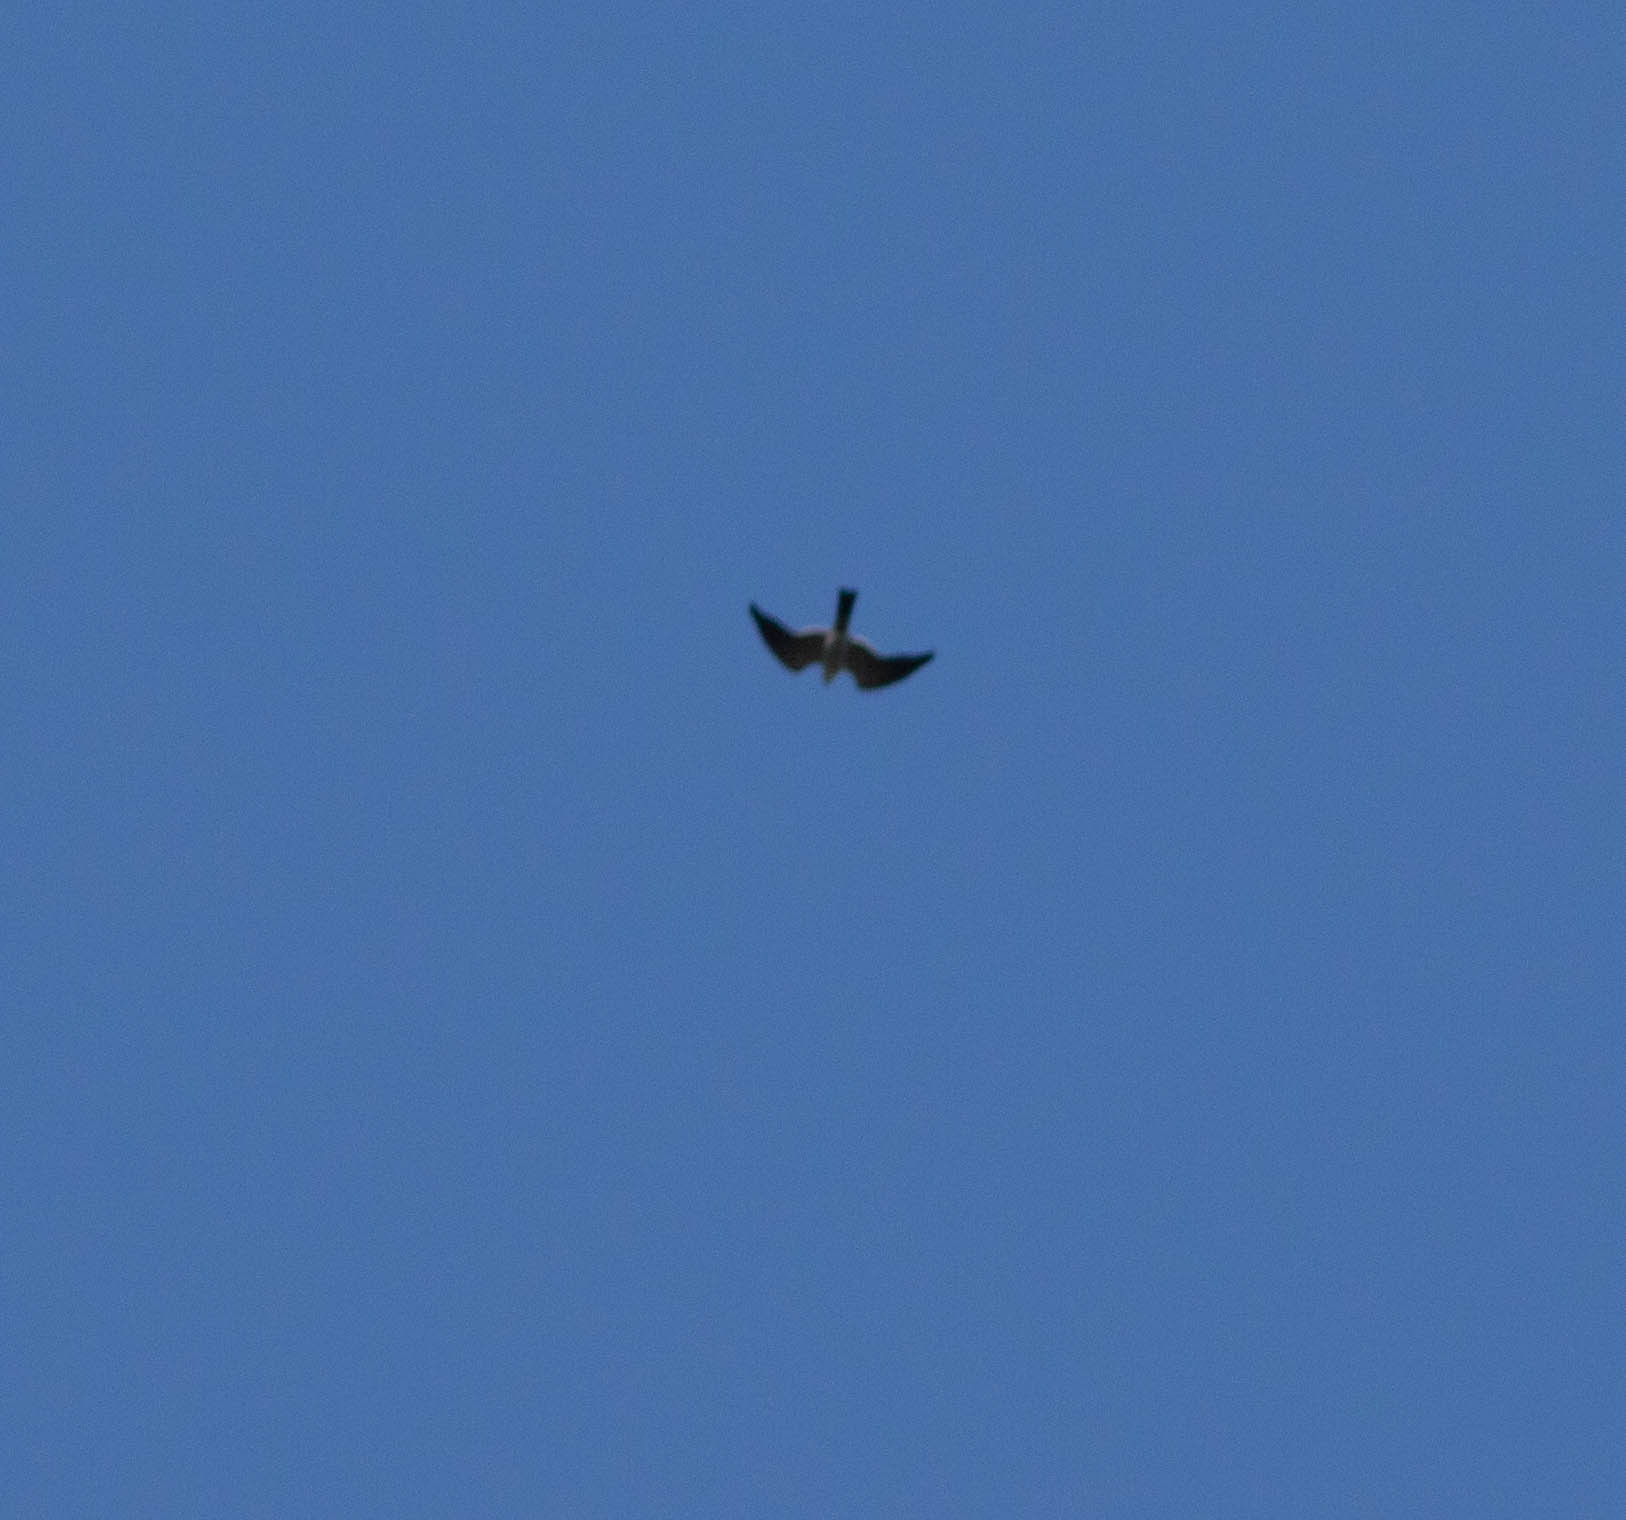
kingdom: Animalia
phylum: Chordata
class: Aves
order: Accipitriformes
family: Accipitridae
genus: Ictinia
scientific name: Ictinia mississippiensis
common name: Mississippi kite
